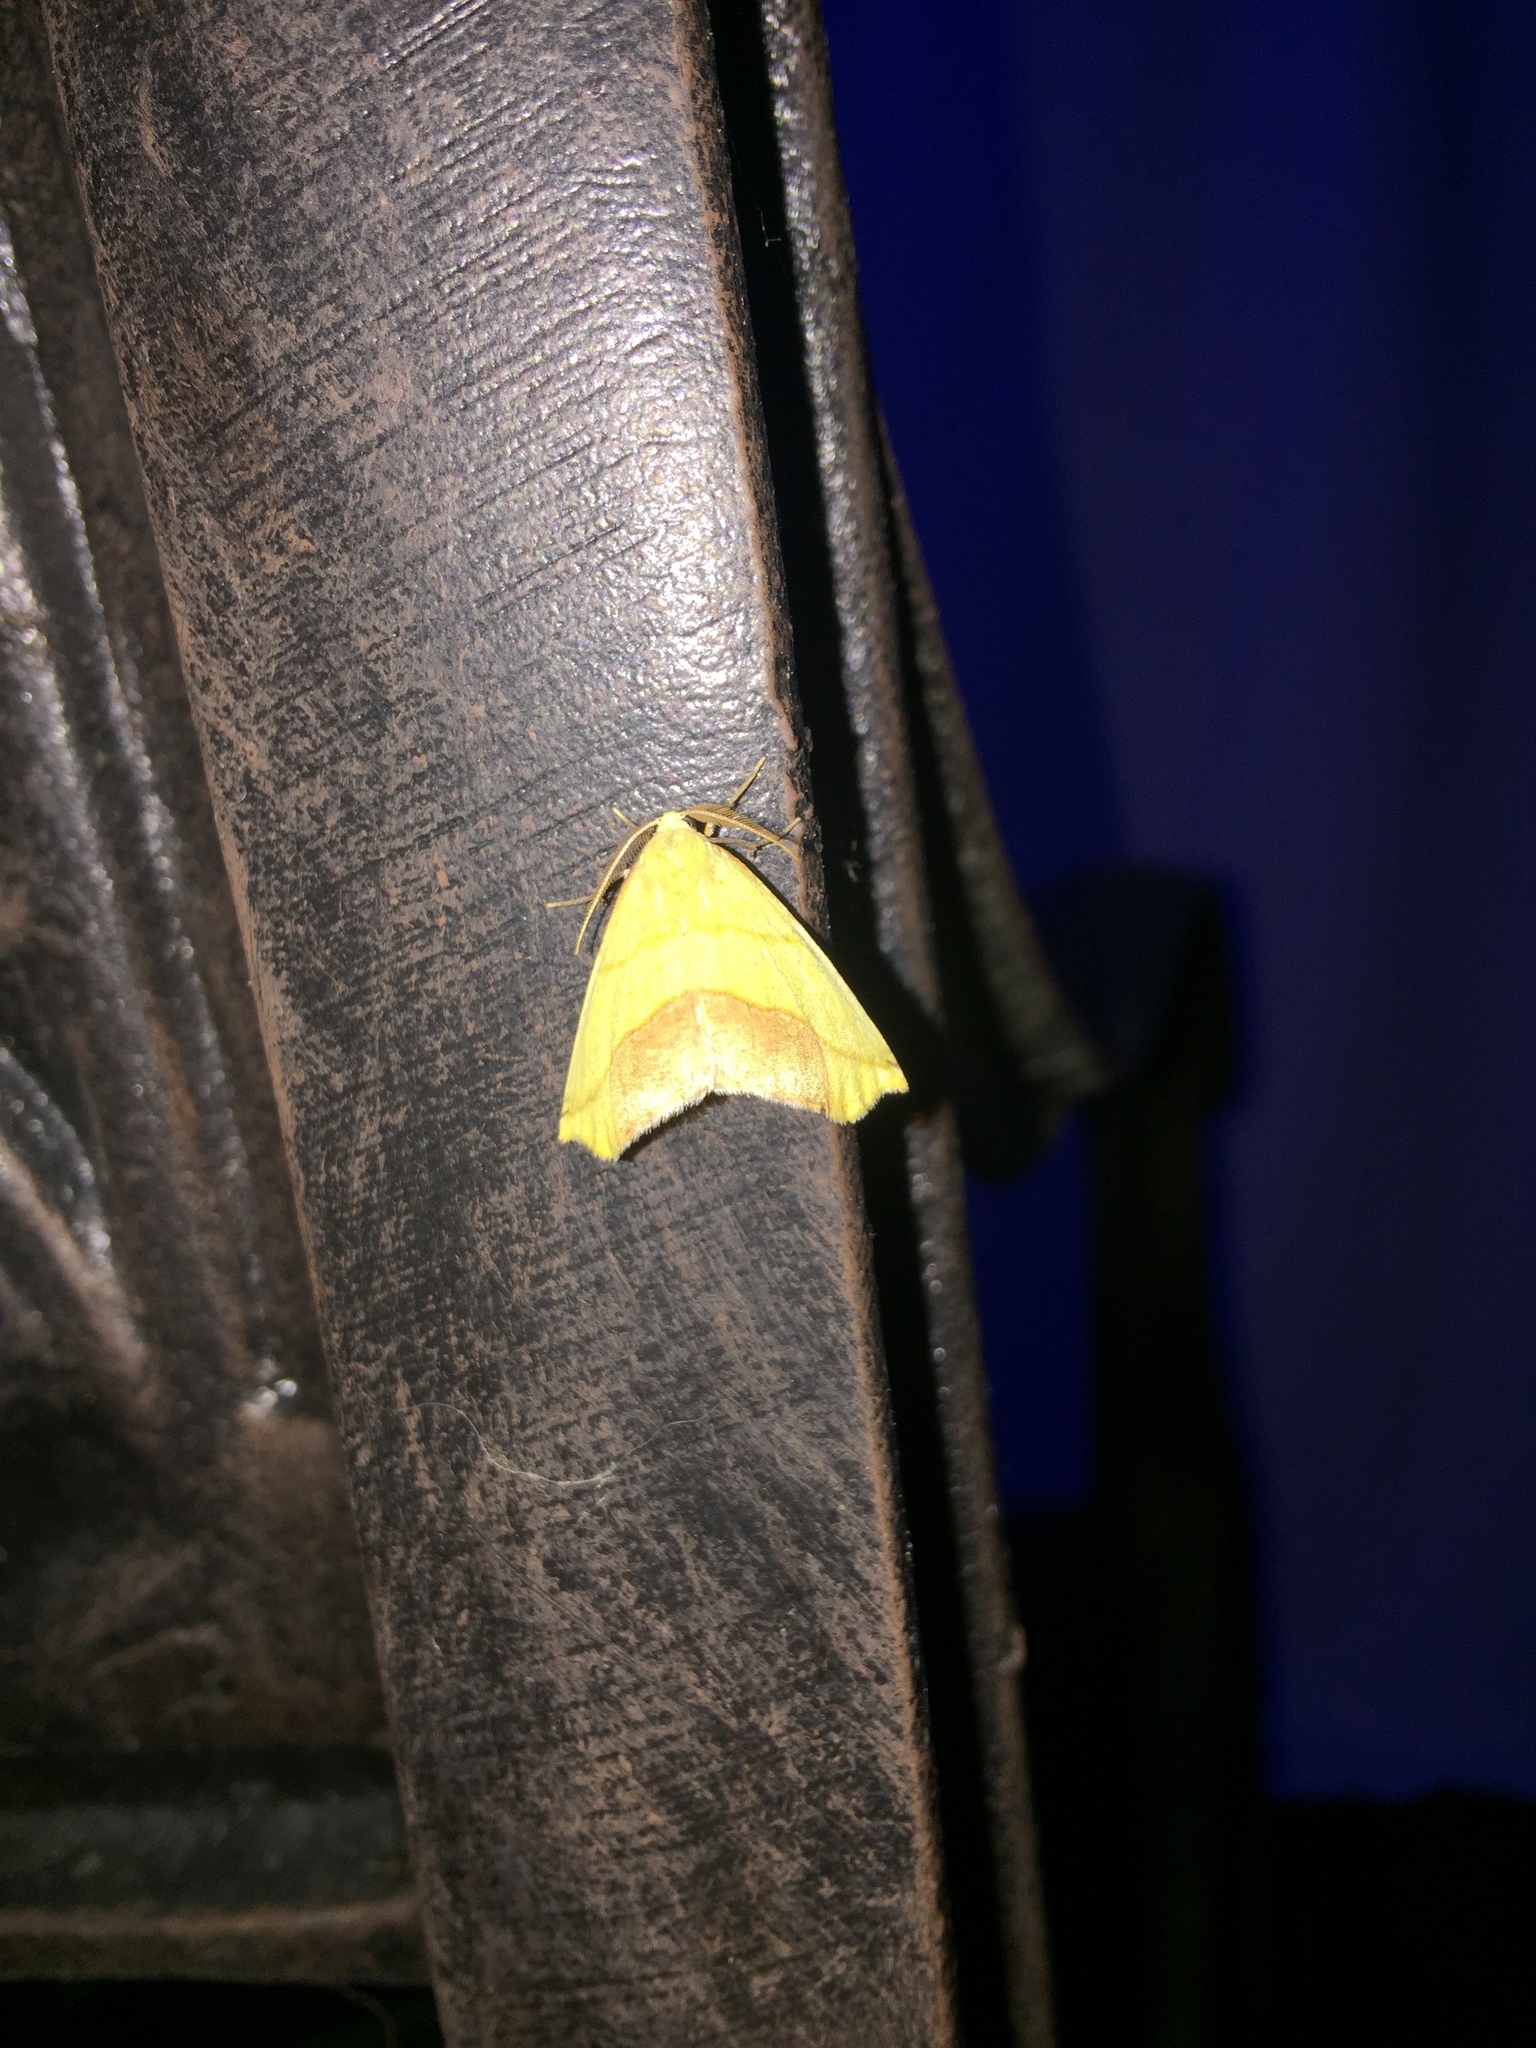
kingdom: Animalia
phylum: Arthropoda
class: Insecta
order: Lepidoptera
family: Geometridae
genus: Sicya
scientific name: Sicya macularia
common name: Sharp-lined yellow
